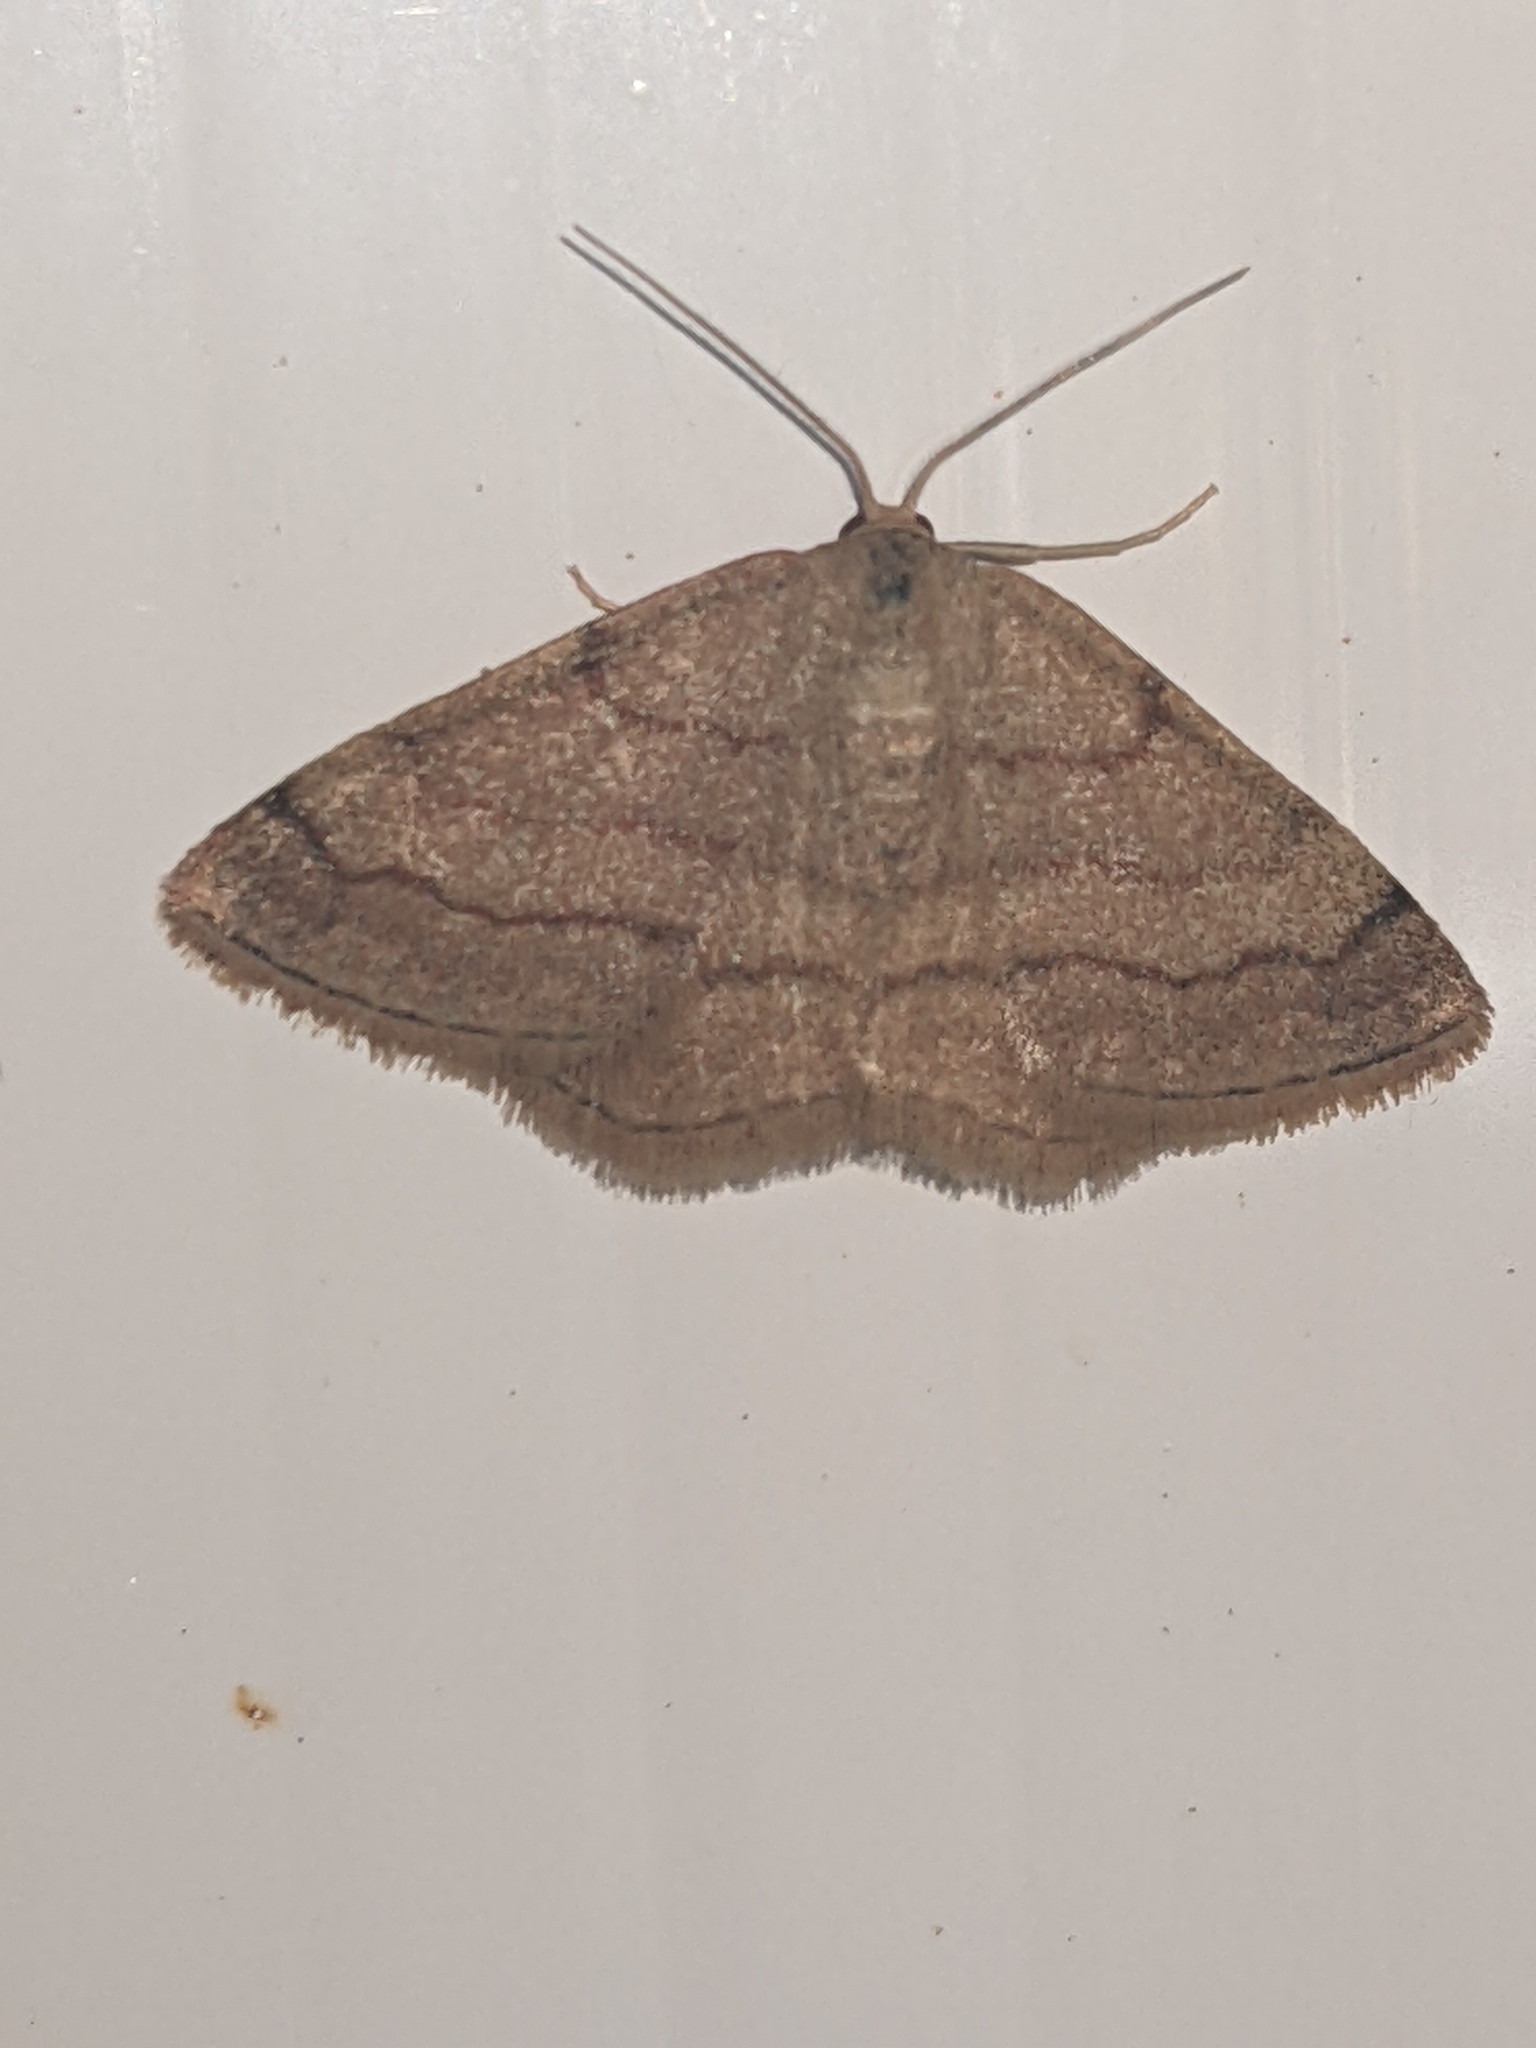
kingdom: Animalia
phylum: Arthropoda
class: Insecta
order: Lepidoptera
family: Geometridae
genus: Scopula
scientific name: Scopula rubiginata
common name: Tawny wave
